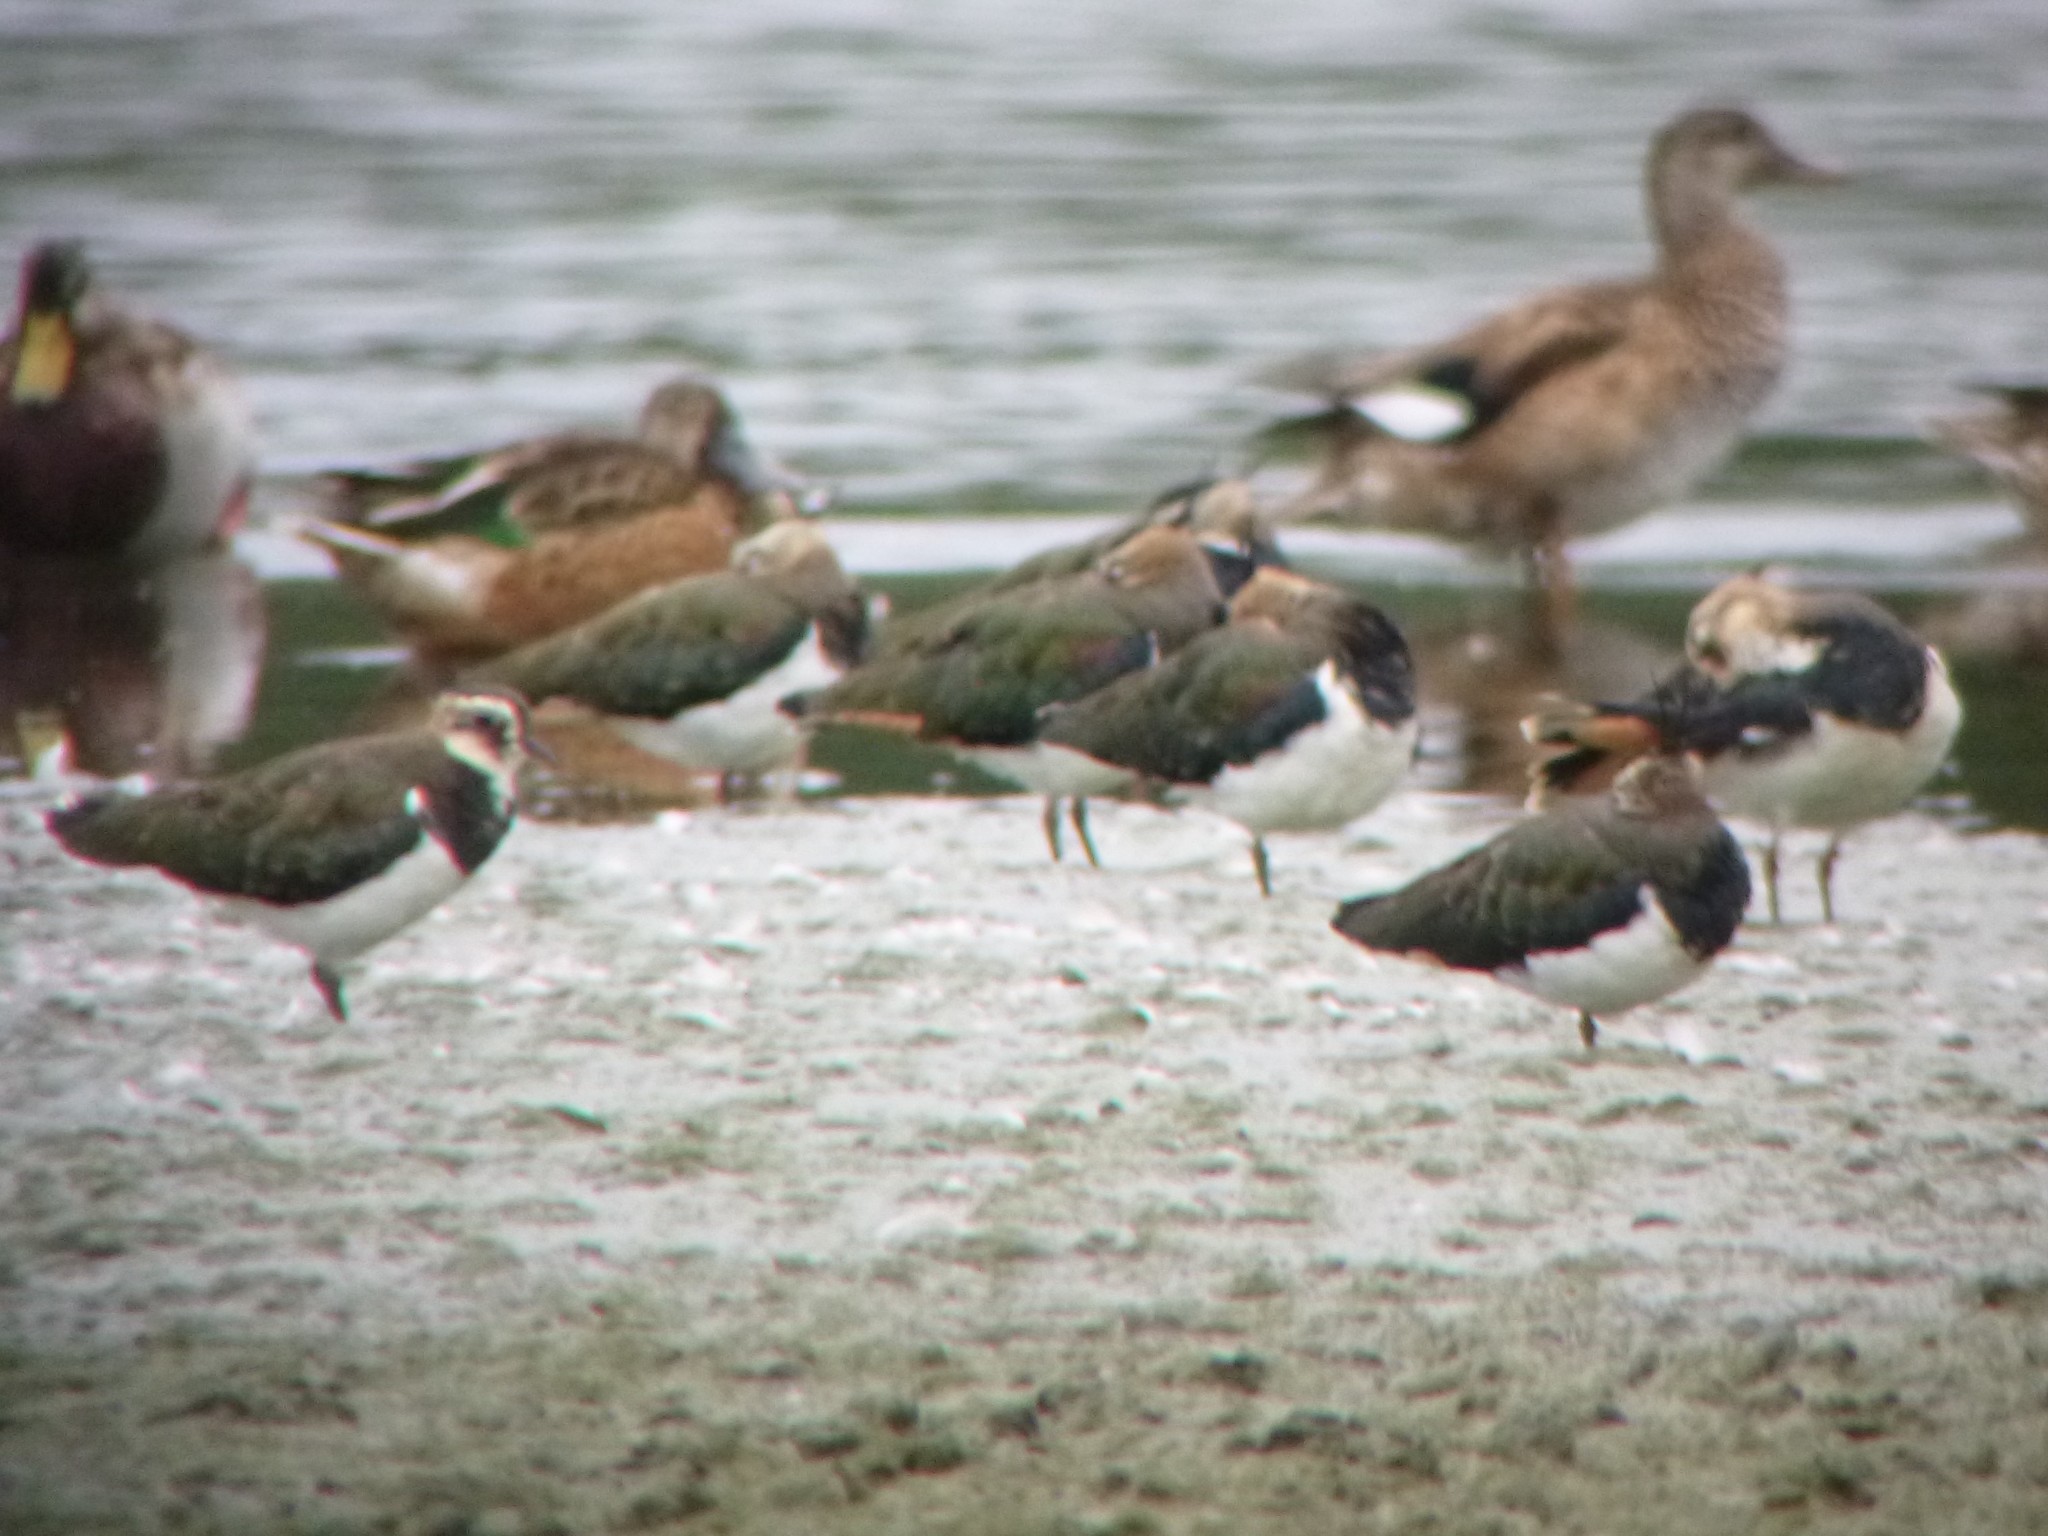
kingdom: Animalia
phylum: Chordata
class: Aves
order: Charadriiformes
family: Charadriidae
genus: Vanellus
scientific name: Vanellus vanellus
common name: Northern lapwing
